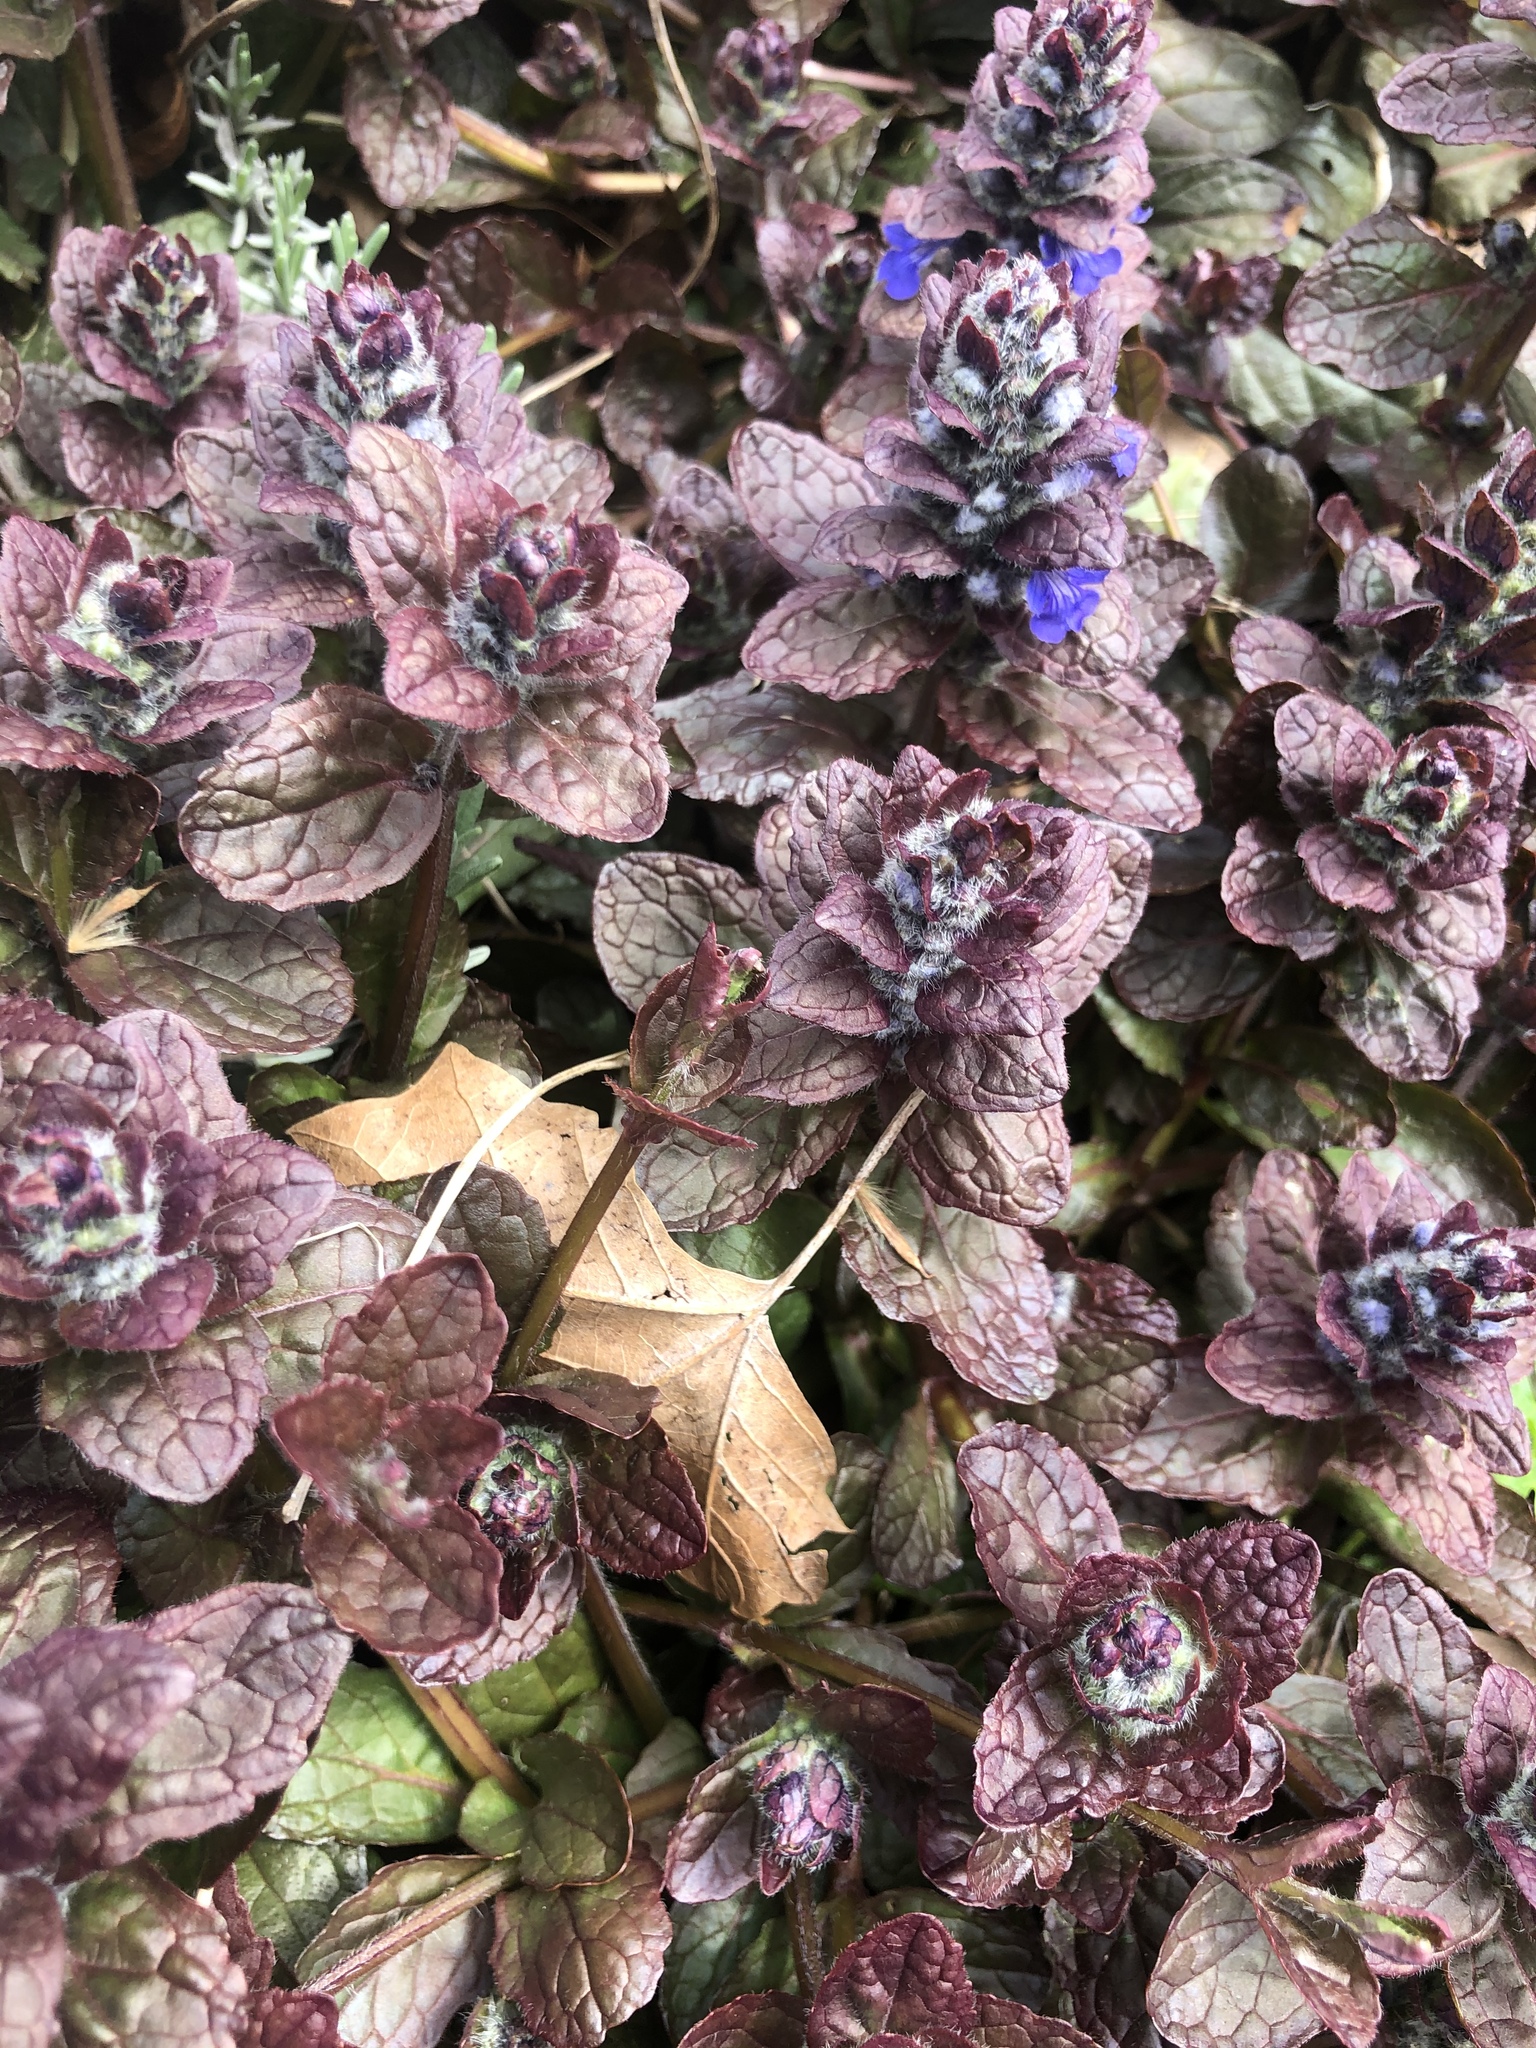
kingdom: Plantae
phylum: Tracheophyta
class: Magnoliopsida
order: Lamiales
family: Lamiaceae
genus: Ajuga
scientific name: Ajuga reptans
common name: Bugle
